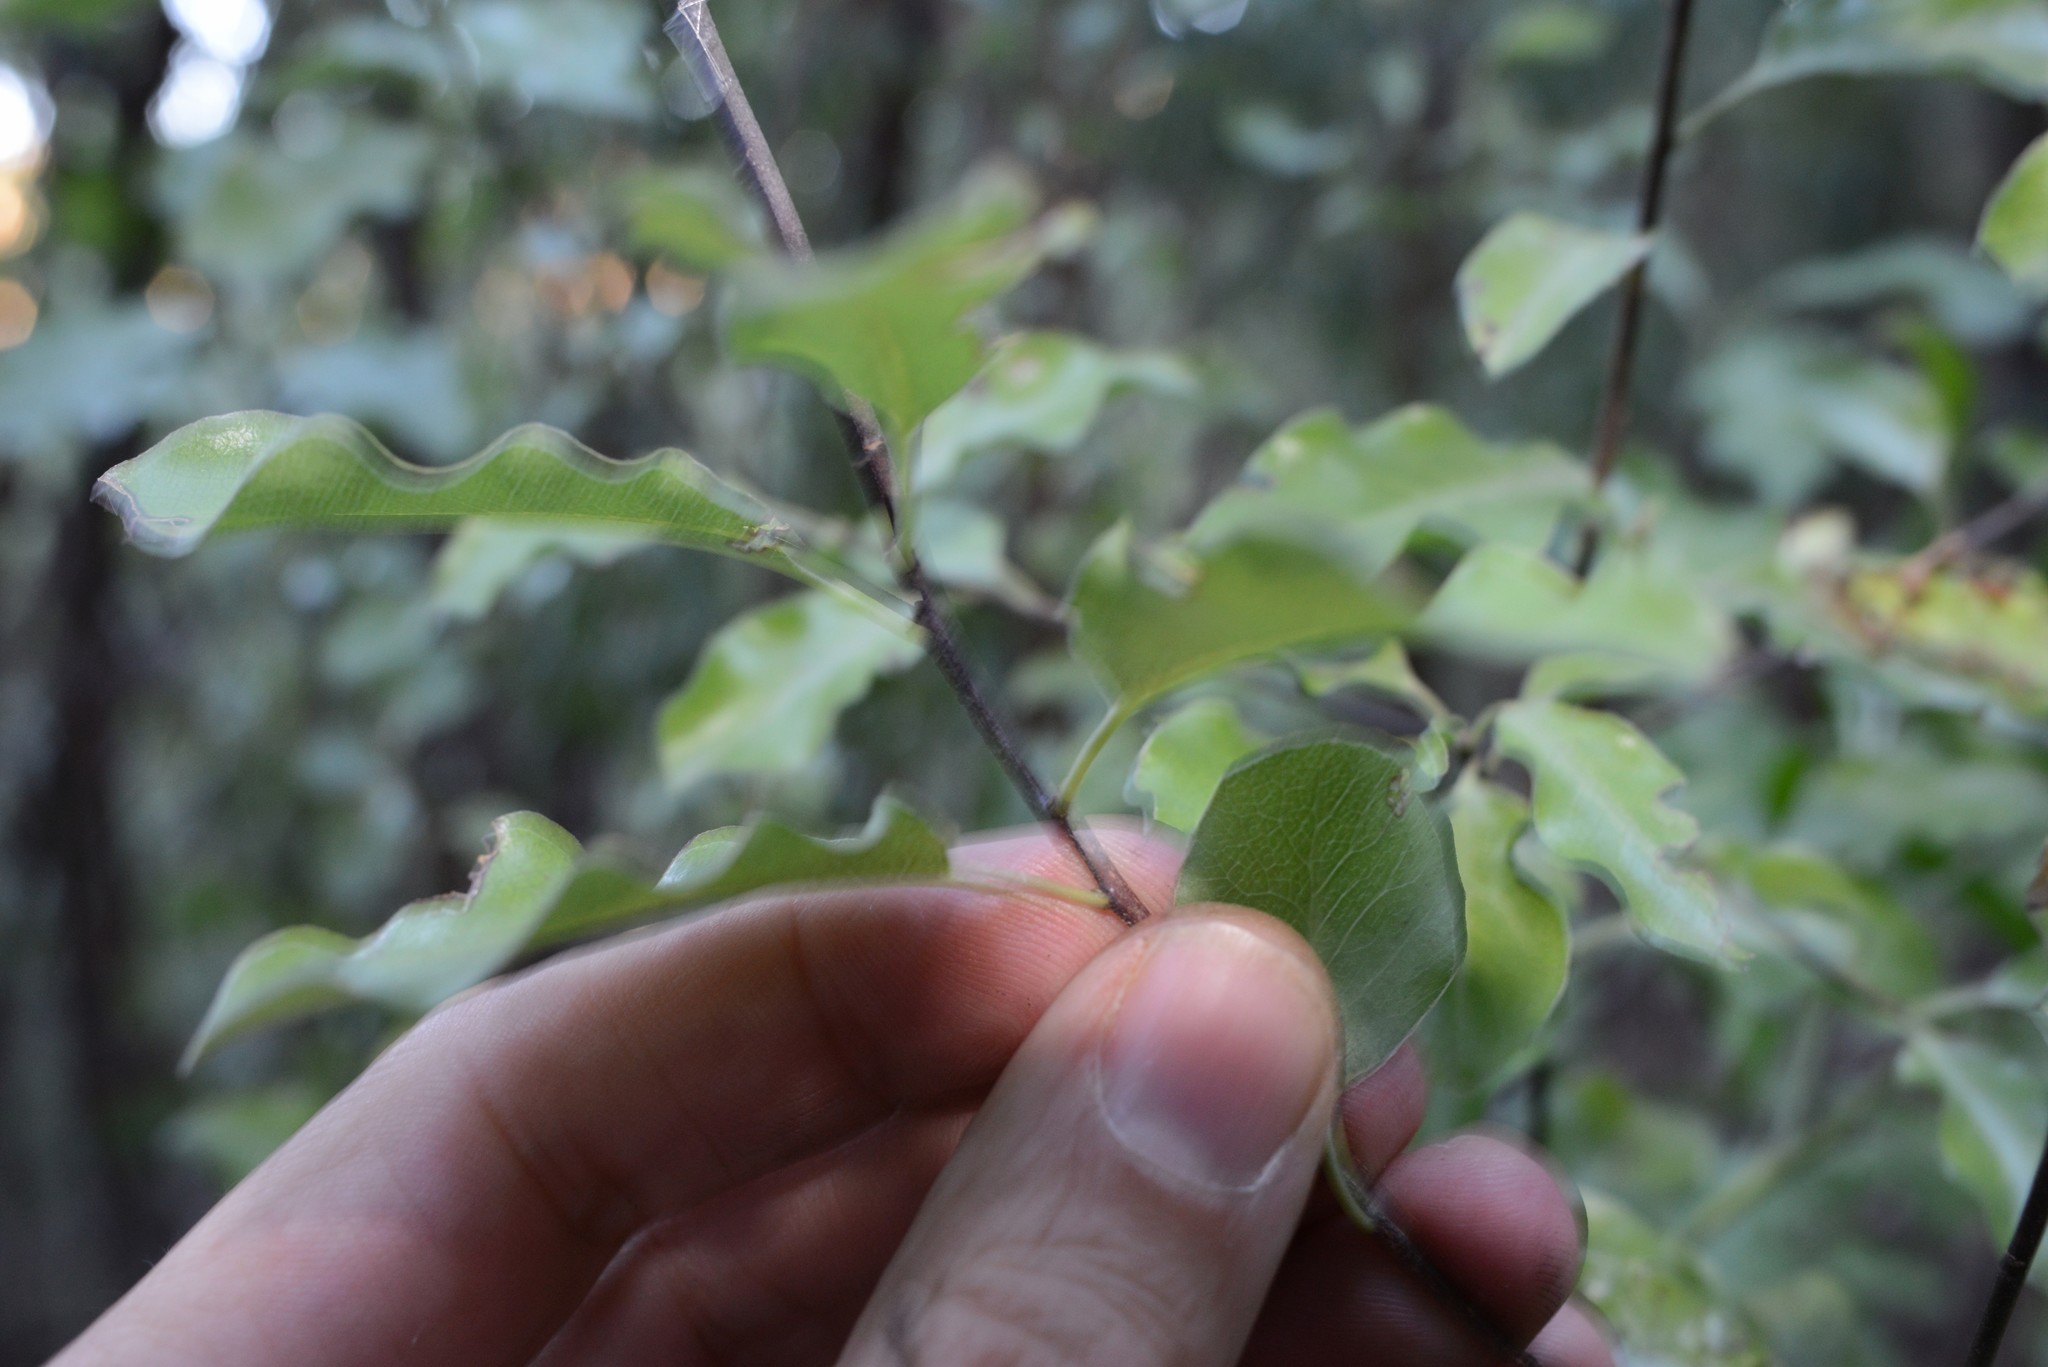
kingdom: Plantae
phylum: Tracheophyta
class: Magnoliopsida
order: Apiales
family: Pittosporaceae
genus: Pittosporum
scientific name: Pittosporum tenuifolium
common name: Kohuhu
